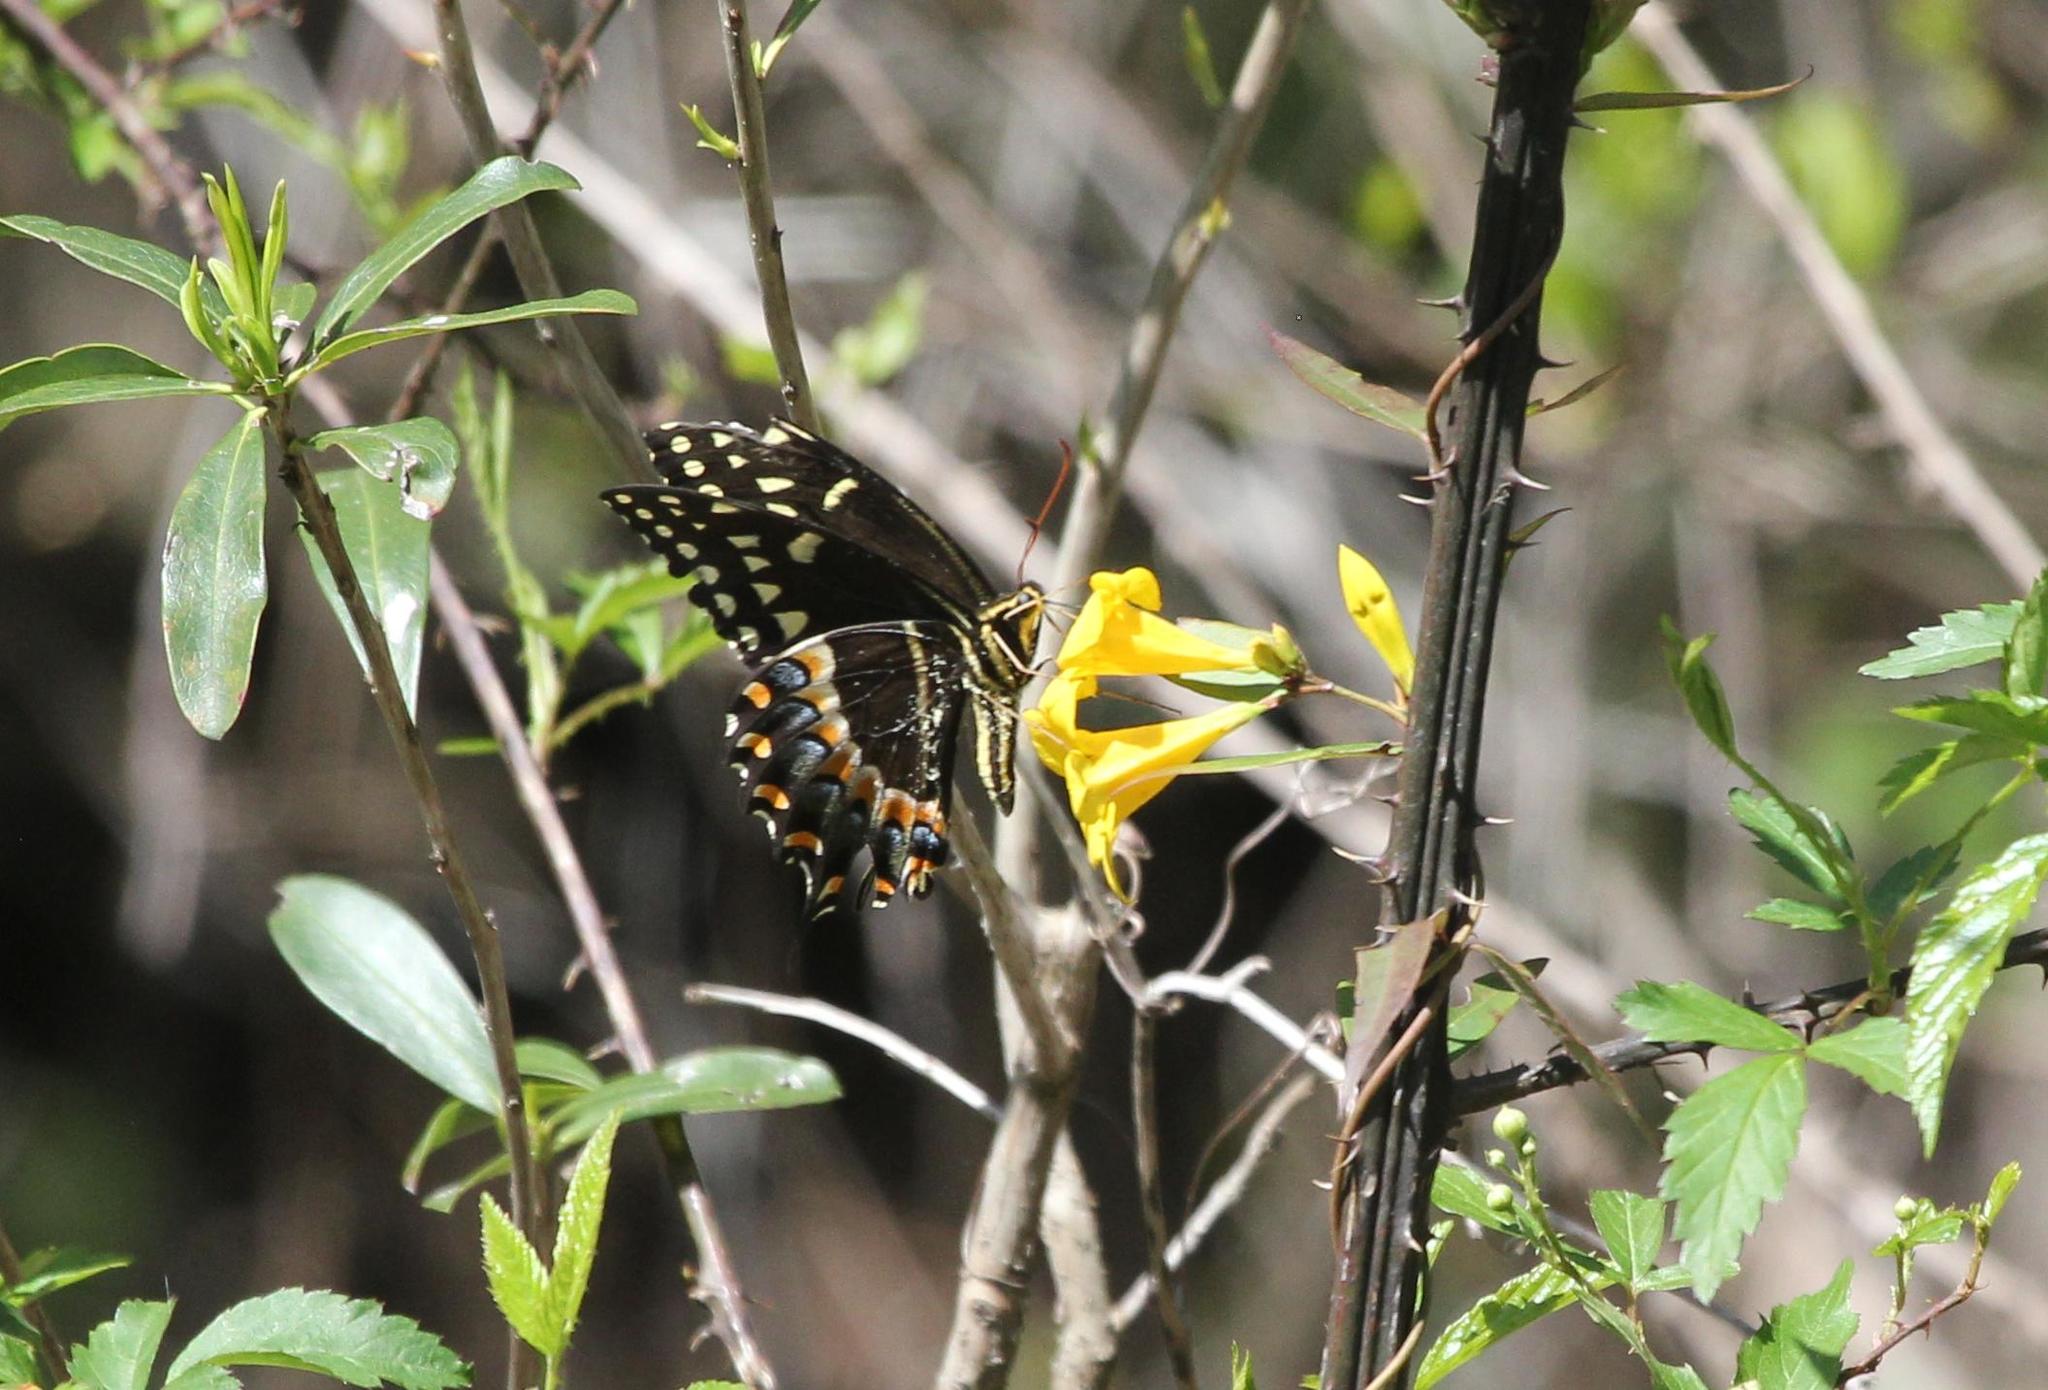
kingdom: Animalia
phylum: Arthropoda
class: Insecta
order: Lepidoptera
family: Papilionidae
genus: Papilio
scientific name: Papilio palamedes
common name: Palamedes swallowtail
